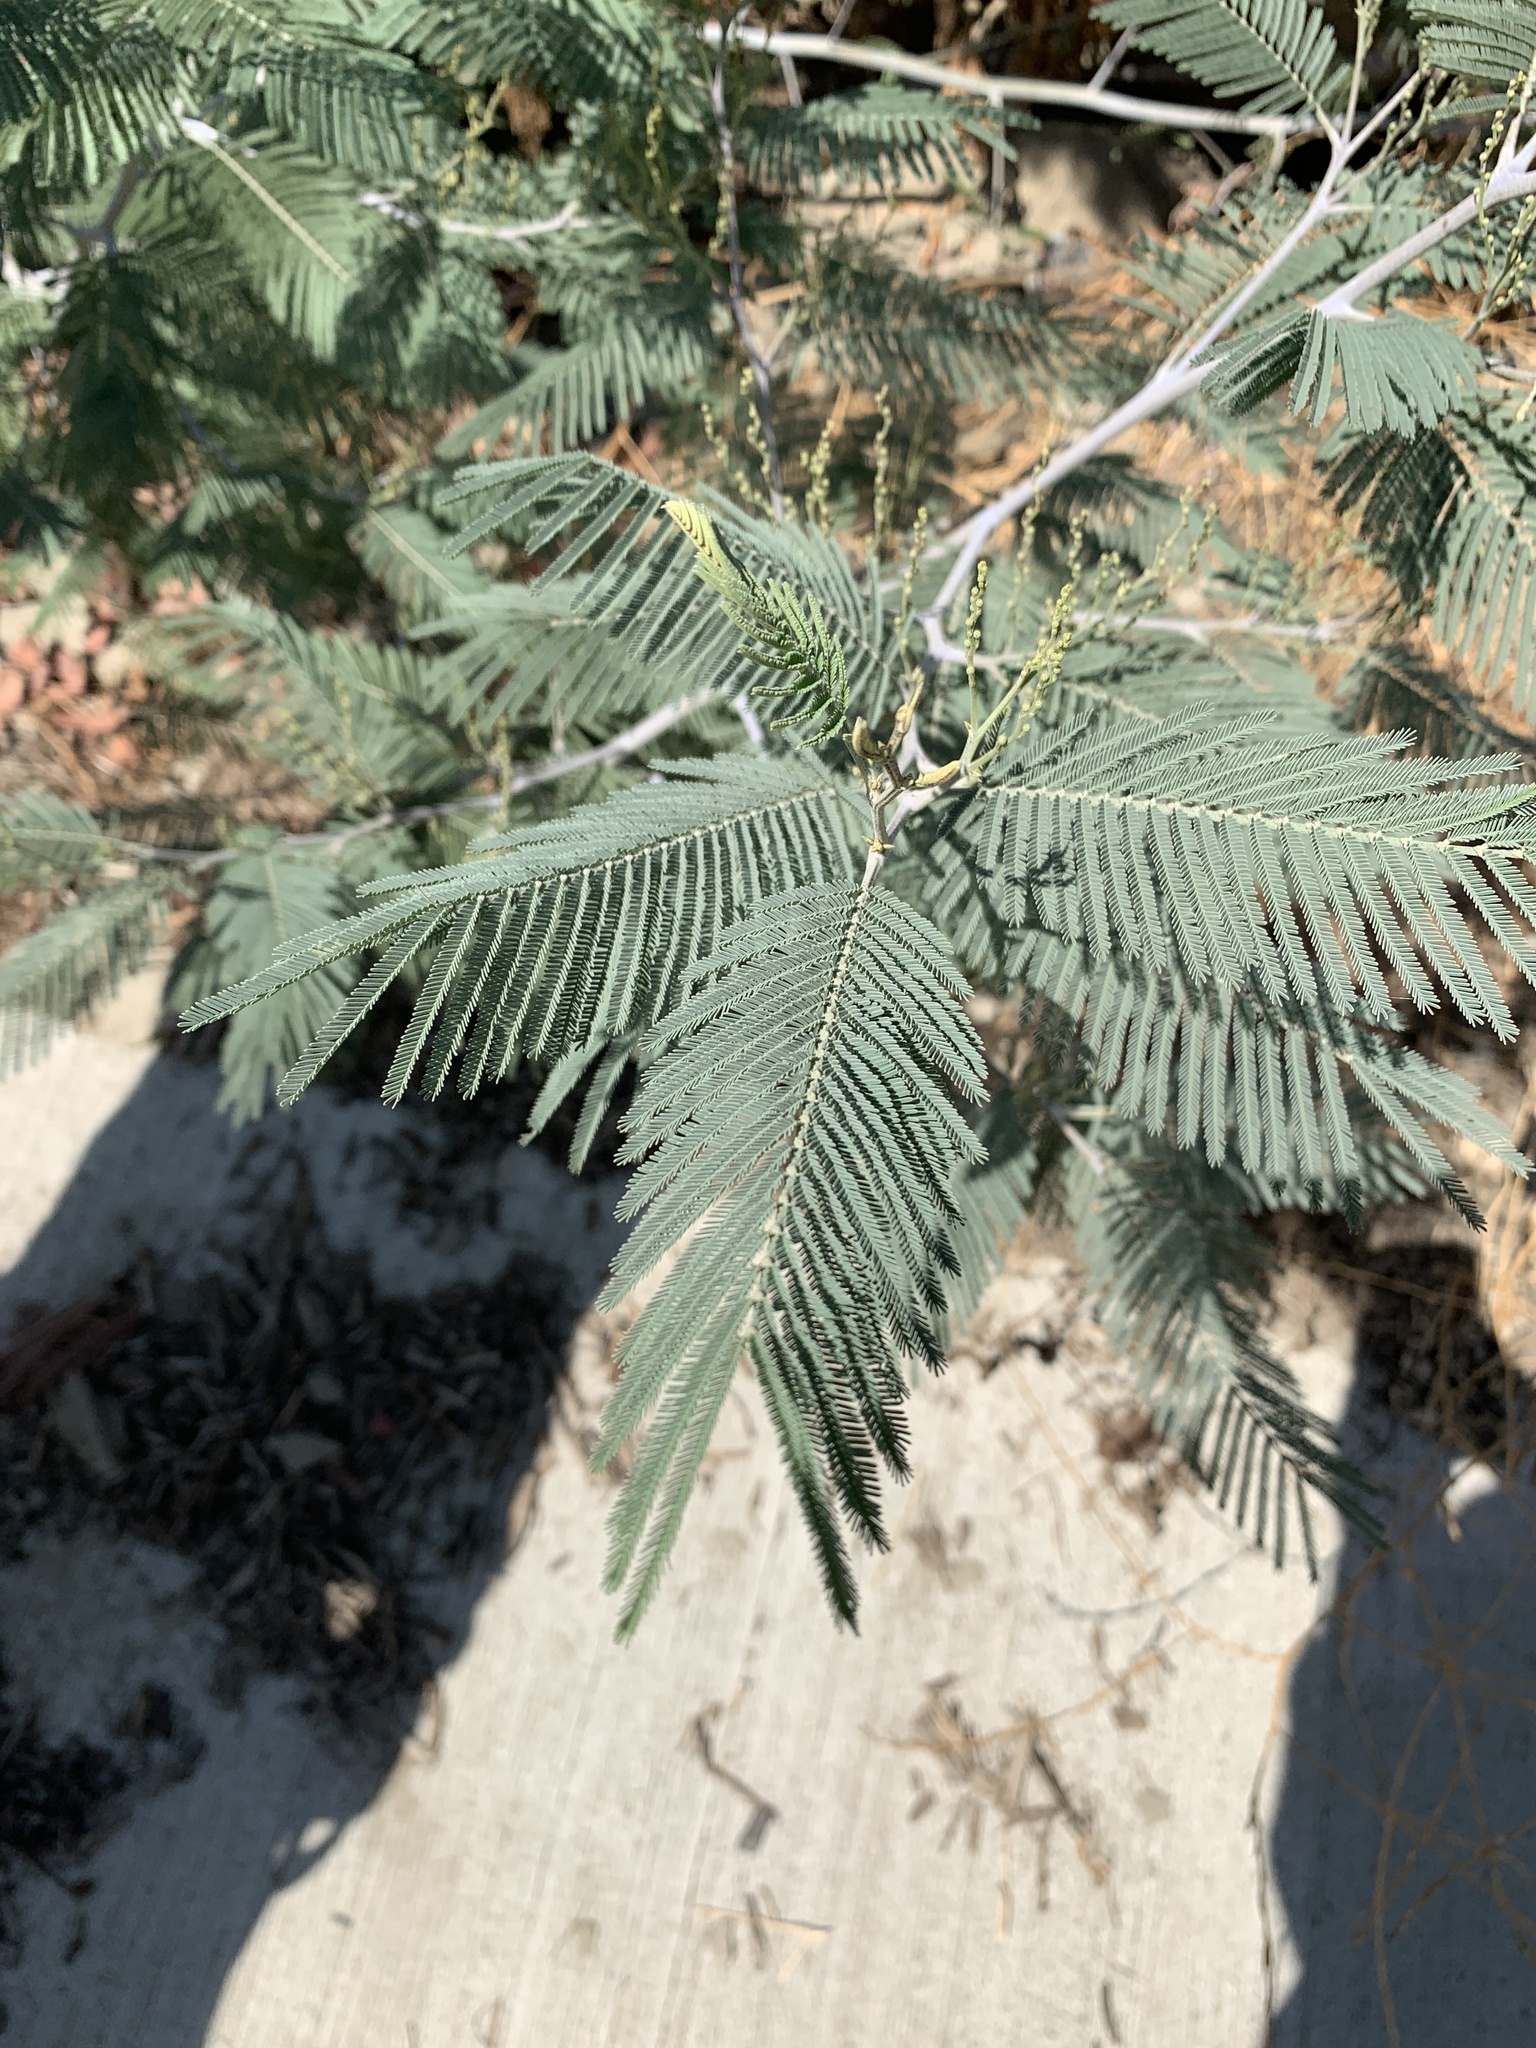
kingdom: Plantae
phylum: Tracheophyta
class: Magnoliopsida
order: Fabales
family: Fabaceae
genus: Acacia
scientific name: Acacia dealbata
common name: Silver wattle
